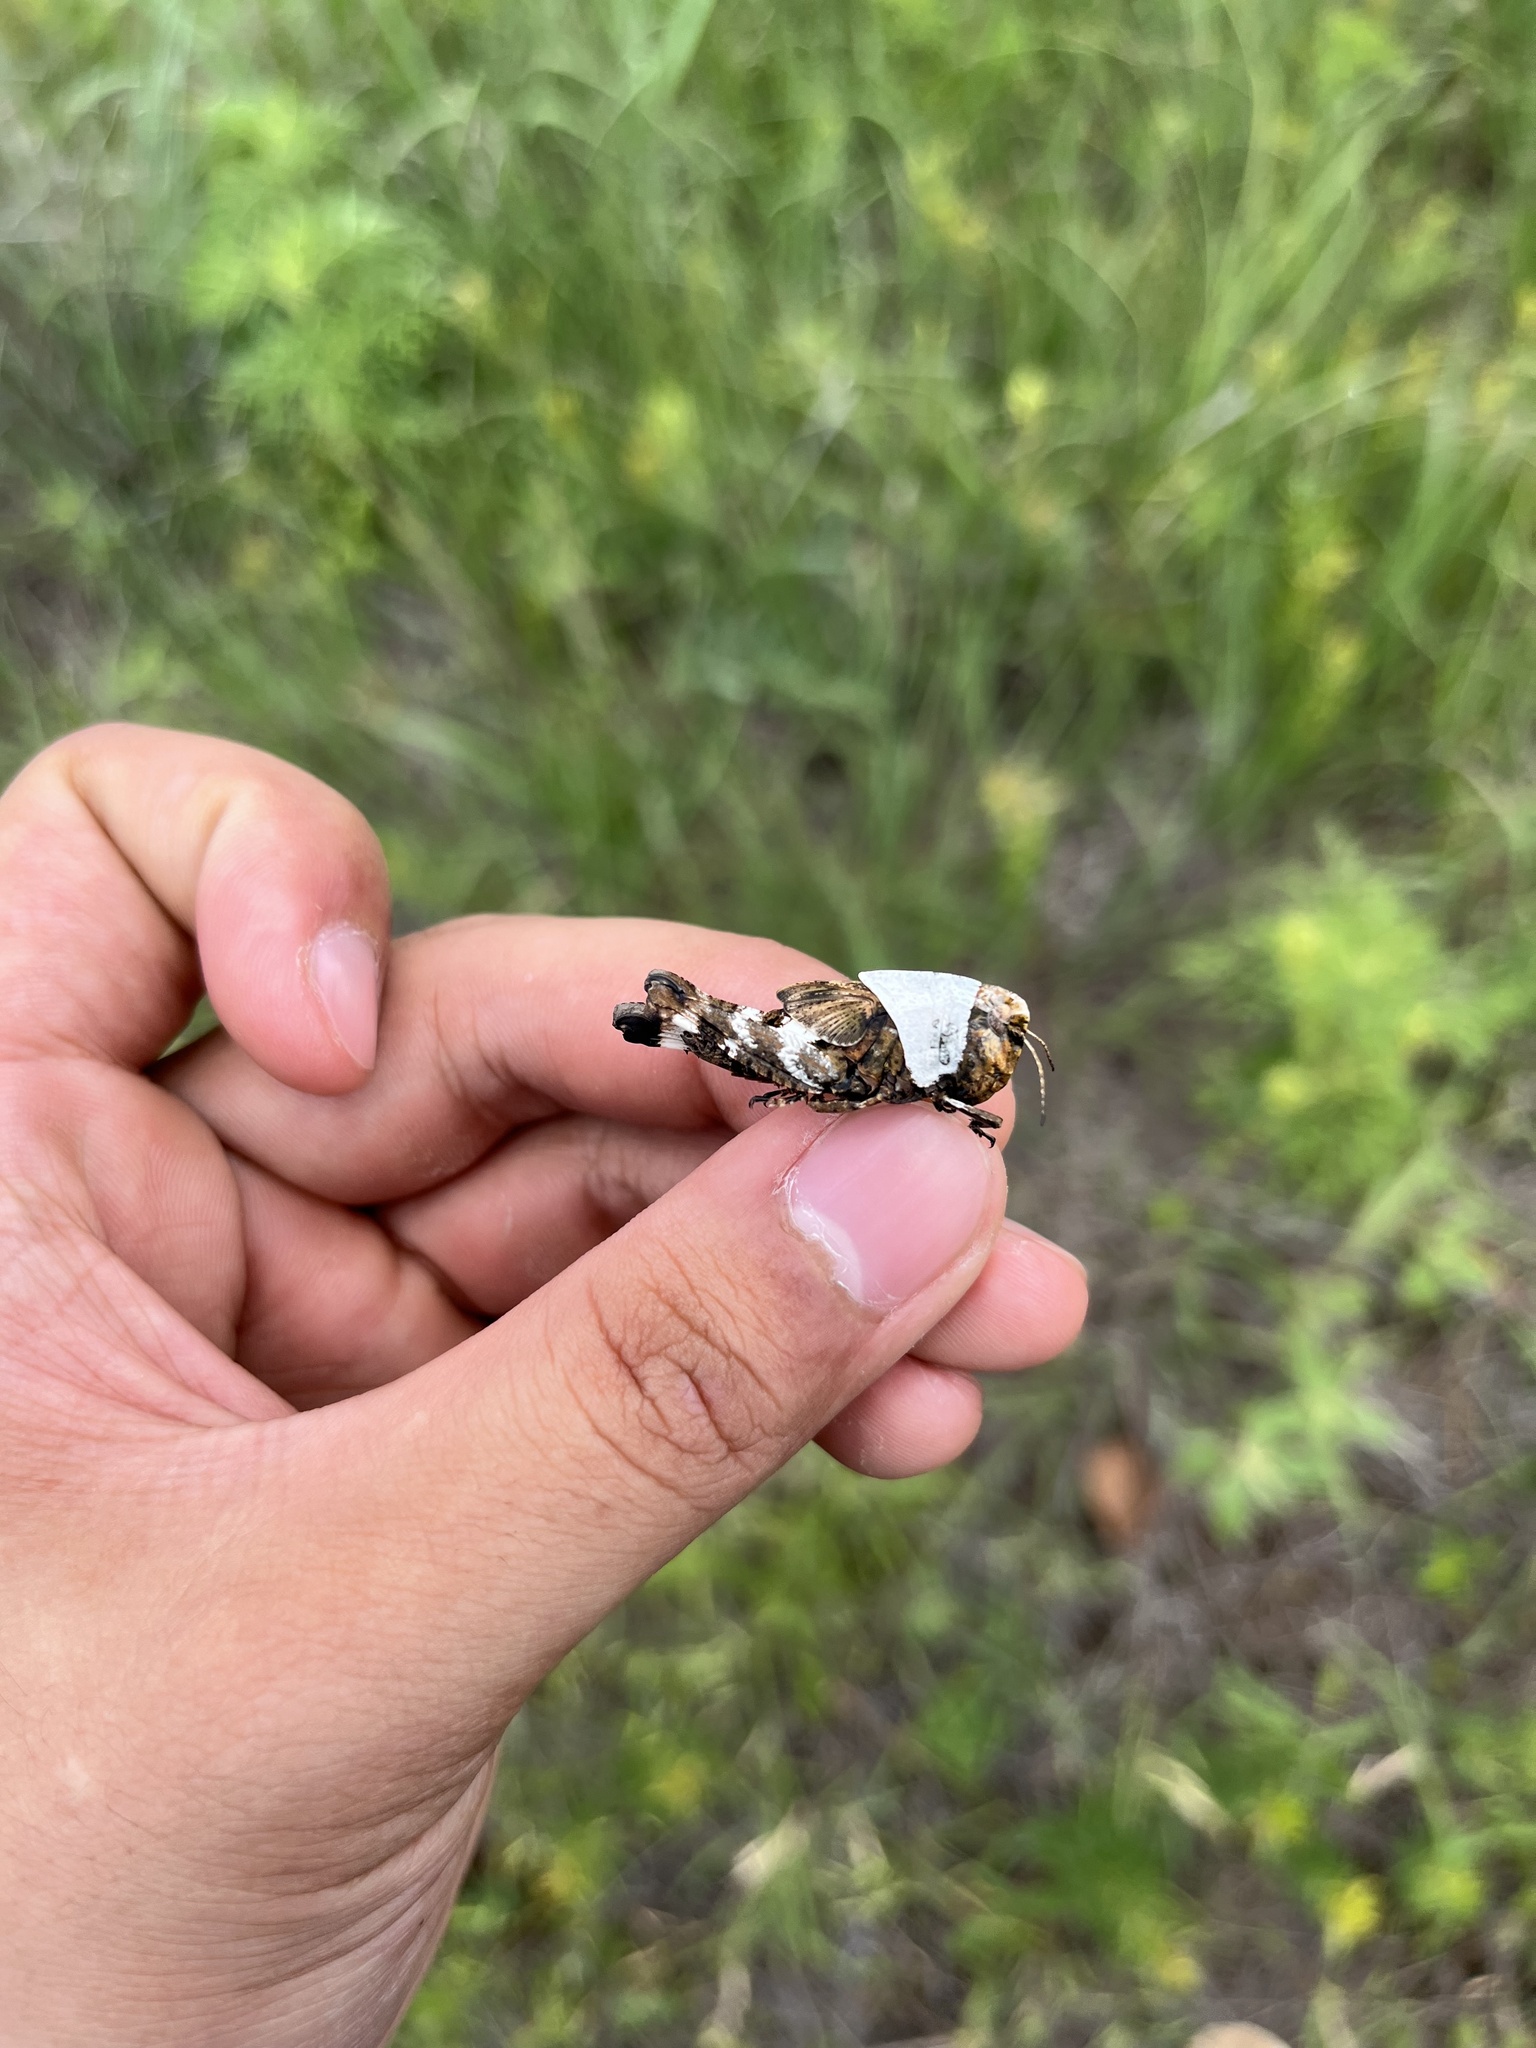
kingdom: Animalia
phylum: Arthropoda
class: Insecta
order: Orthoptera
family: Acrididae
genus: Arphia
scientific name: Arphia simplex
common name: Plains yellow-winged grasshopper
